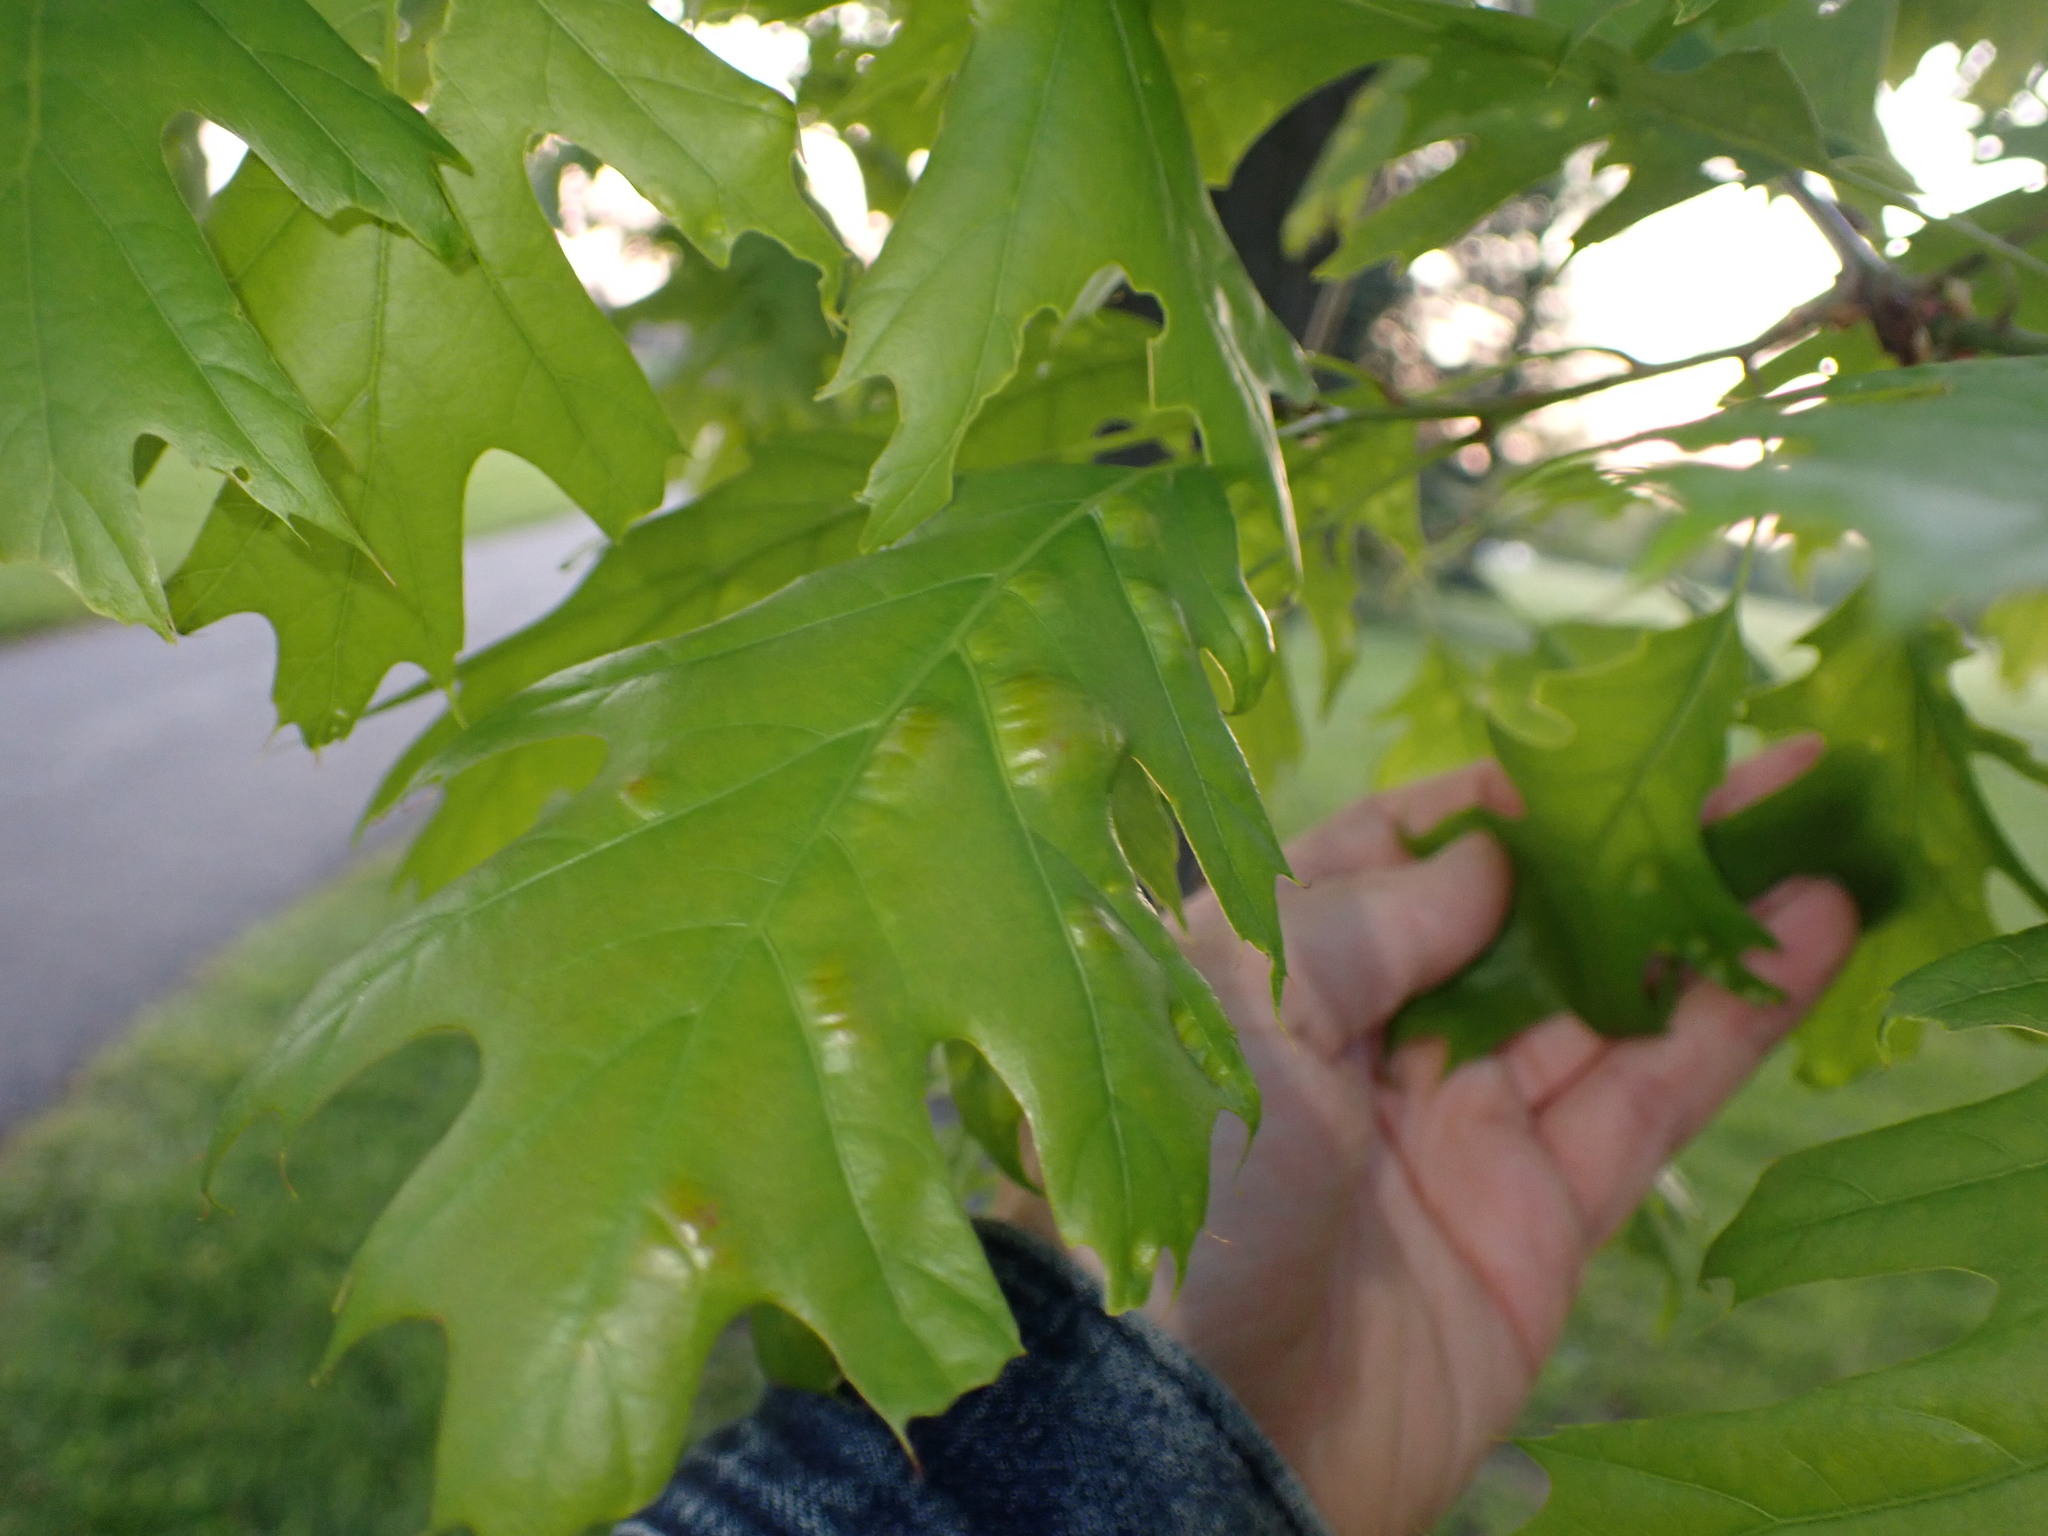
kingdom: Fungi
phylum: Ascomycota
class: Taphrinomycetes
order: Taphrinales
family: Taphrinaceae
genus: Taphrina
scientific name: Taphrina caerulescens
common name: Oak leaf blister
